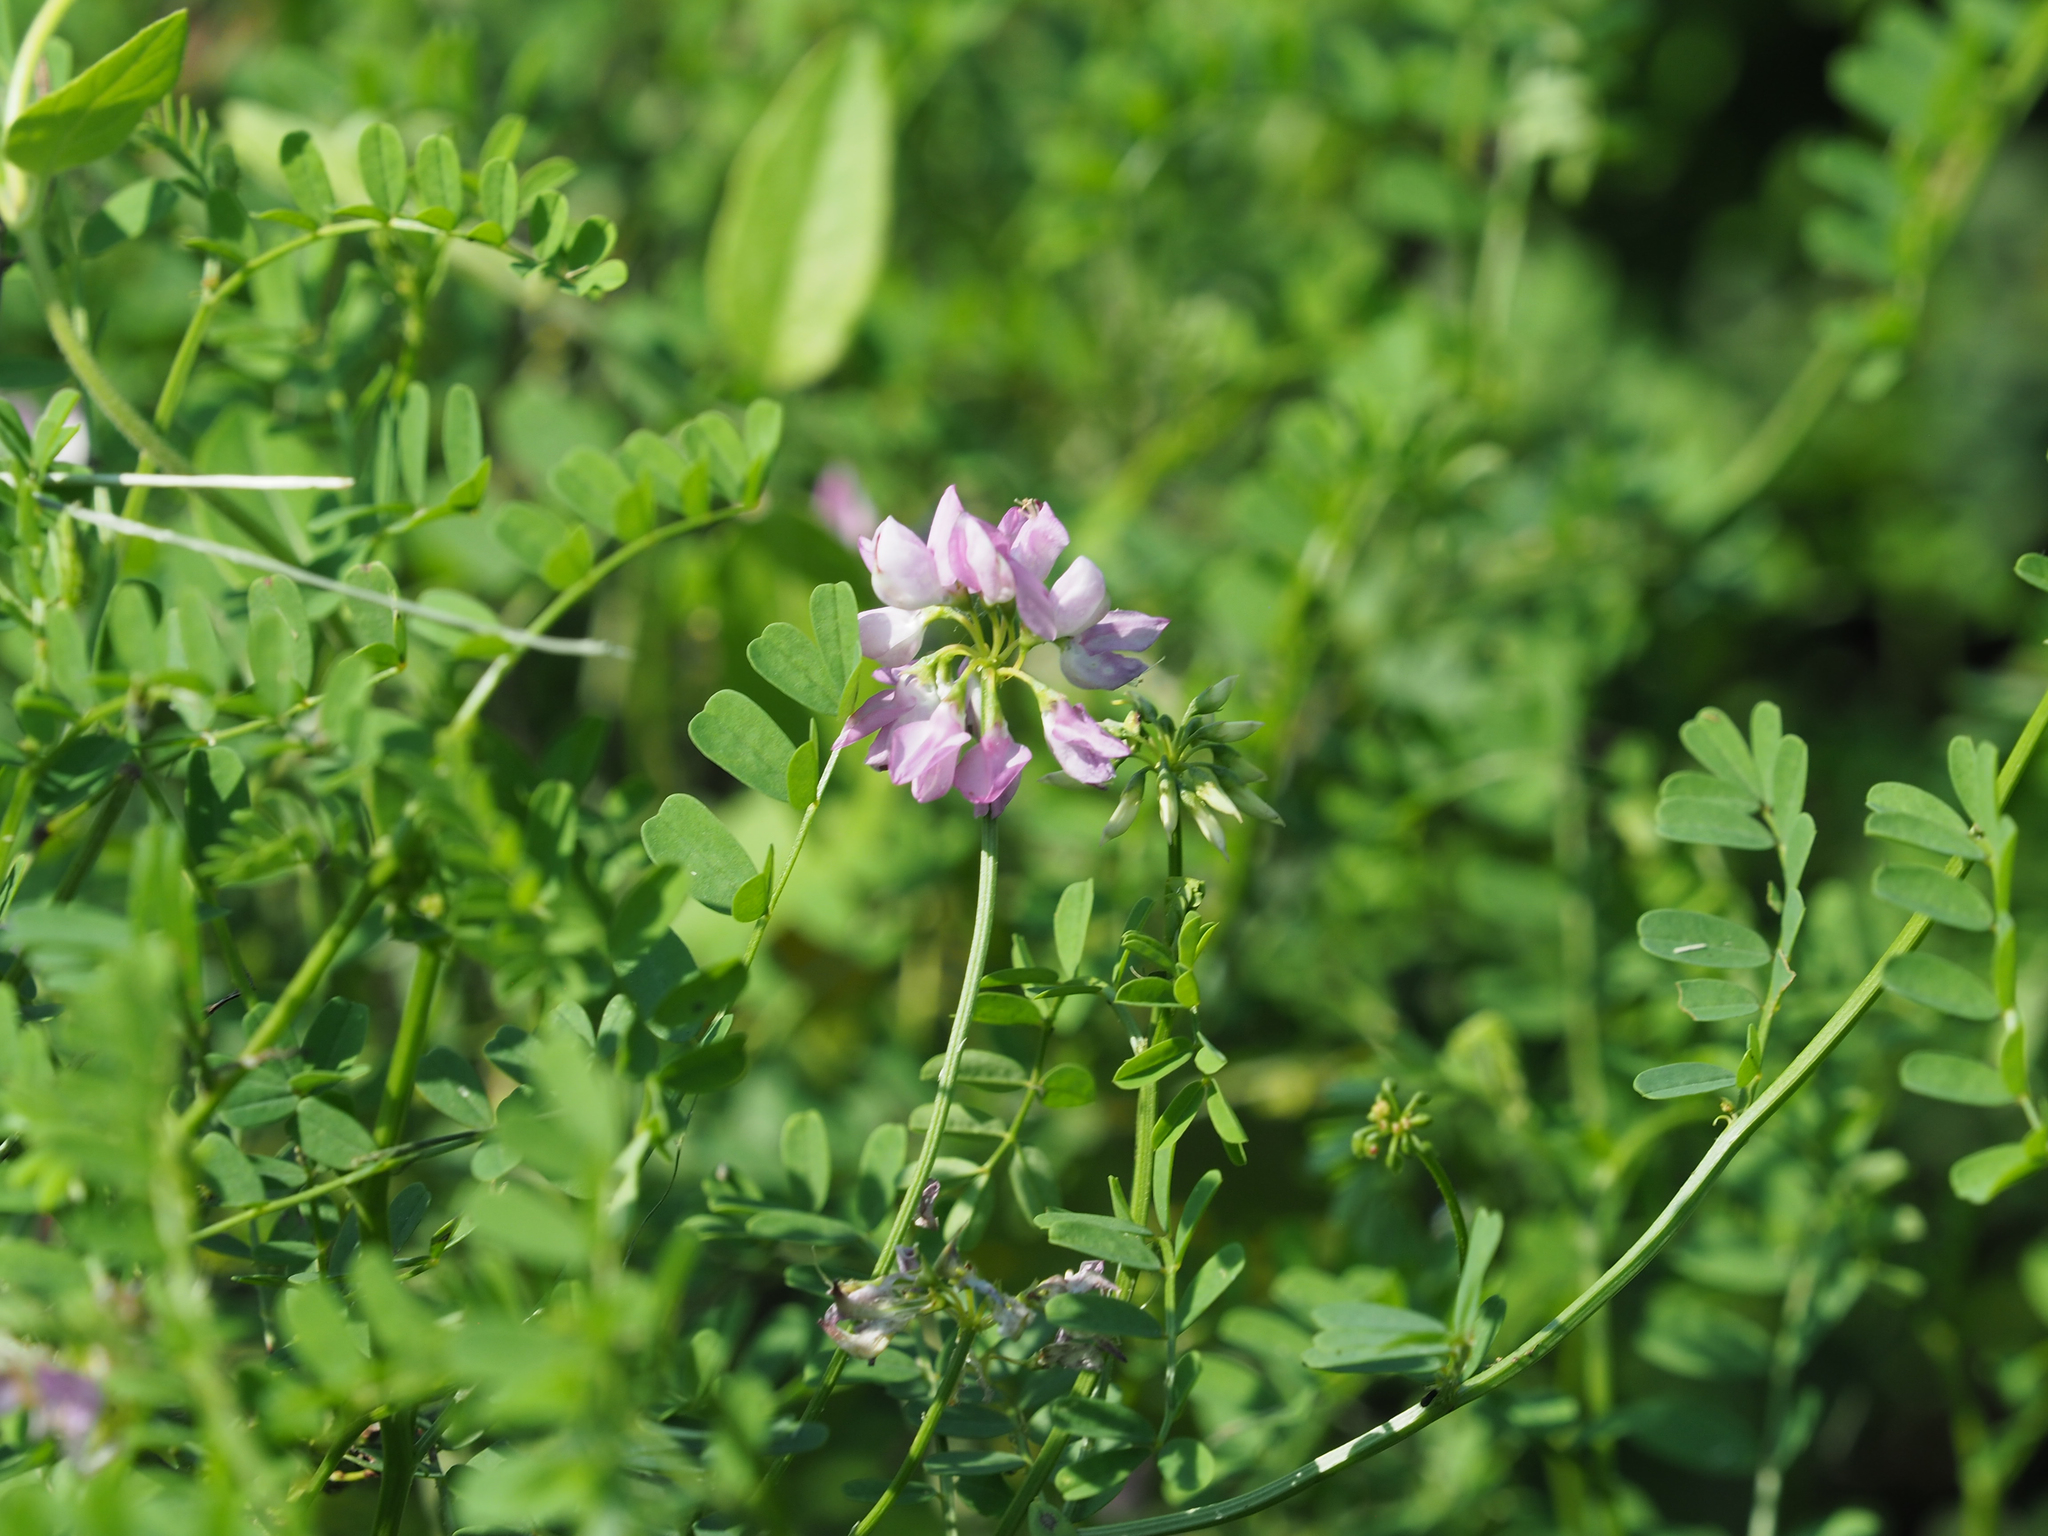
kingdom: Plantae
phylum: Tracheophyta
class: Magnoliopsida
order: Fabales
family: Fabaceae
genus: Coronilla
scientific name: Coronilla varia
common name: Crownvetch
